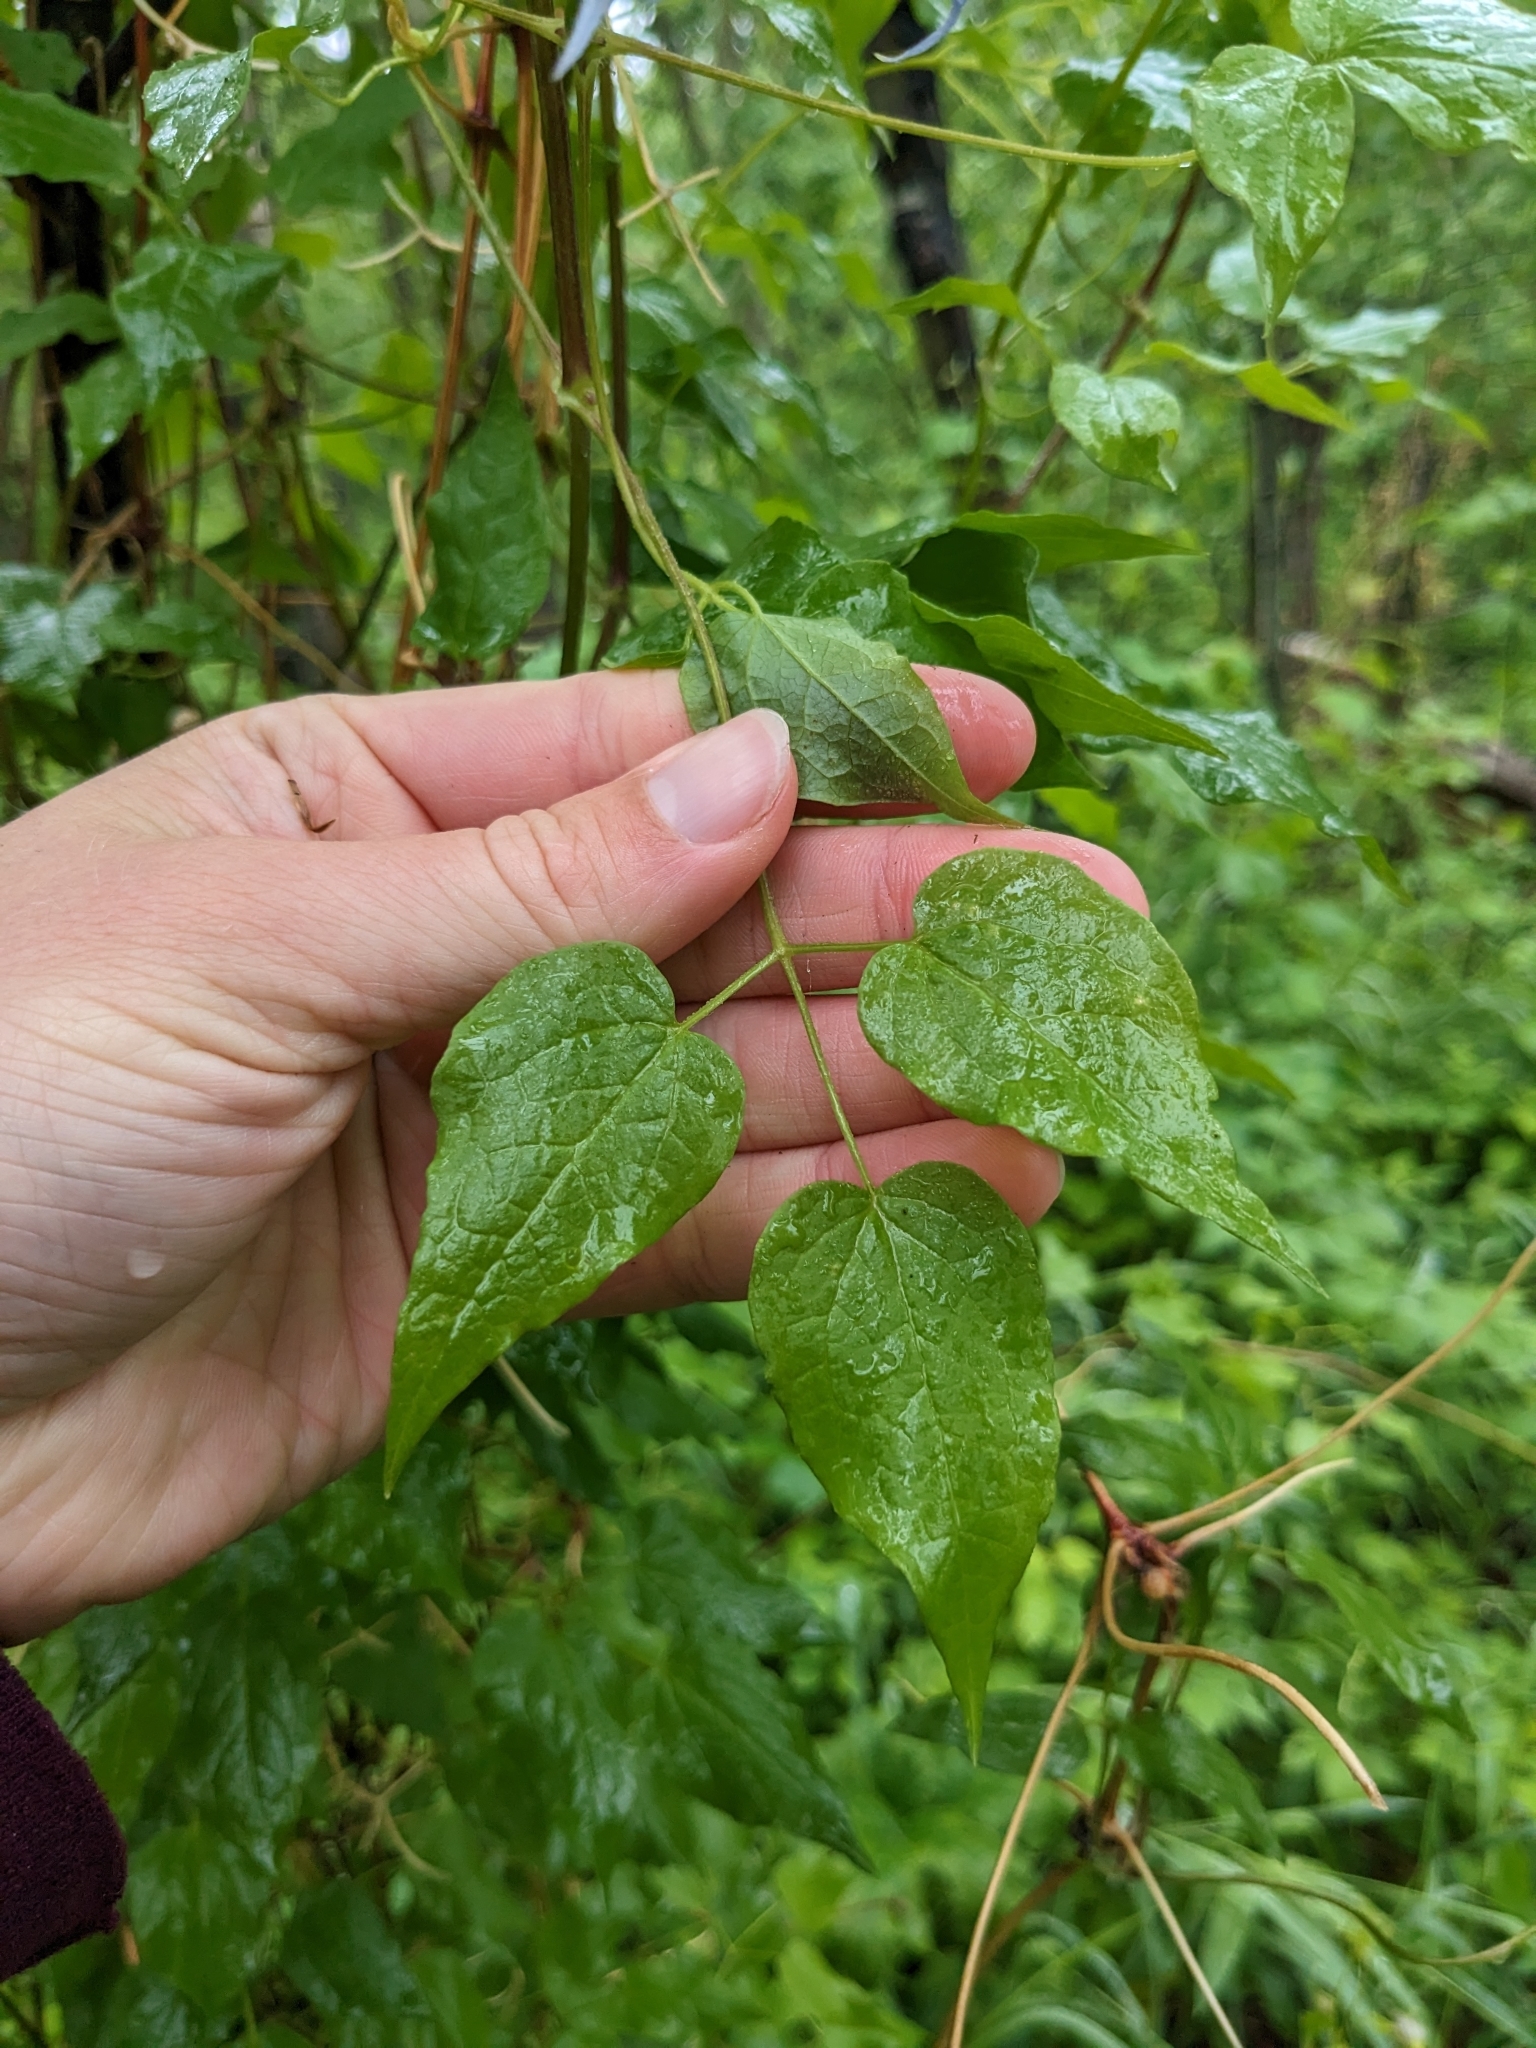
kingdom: Plantae
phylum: Tracheophyta
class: Magnoliopsida
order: Ranunculales
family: Ranunculaceae
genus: Clematis
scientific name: Clematis occidentalis
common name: Purple clematis
